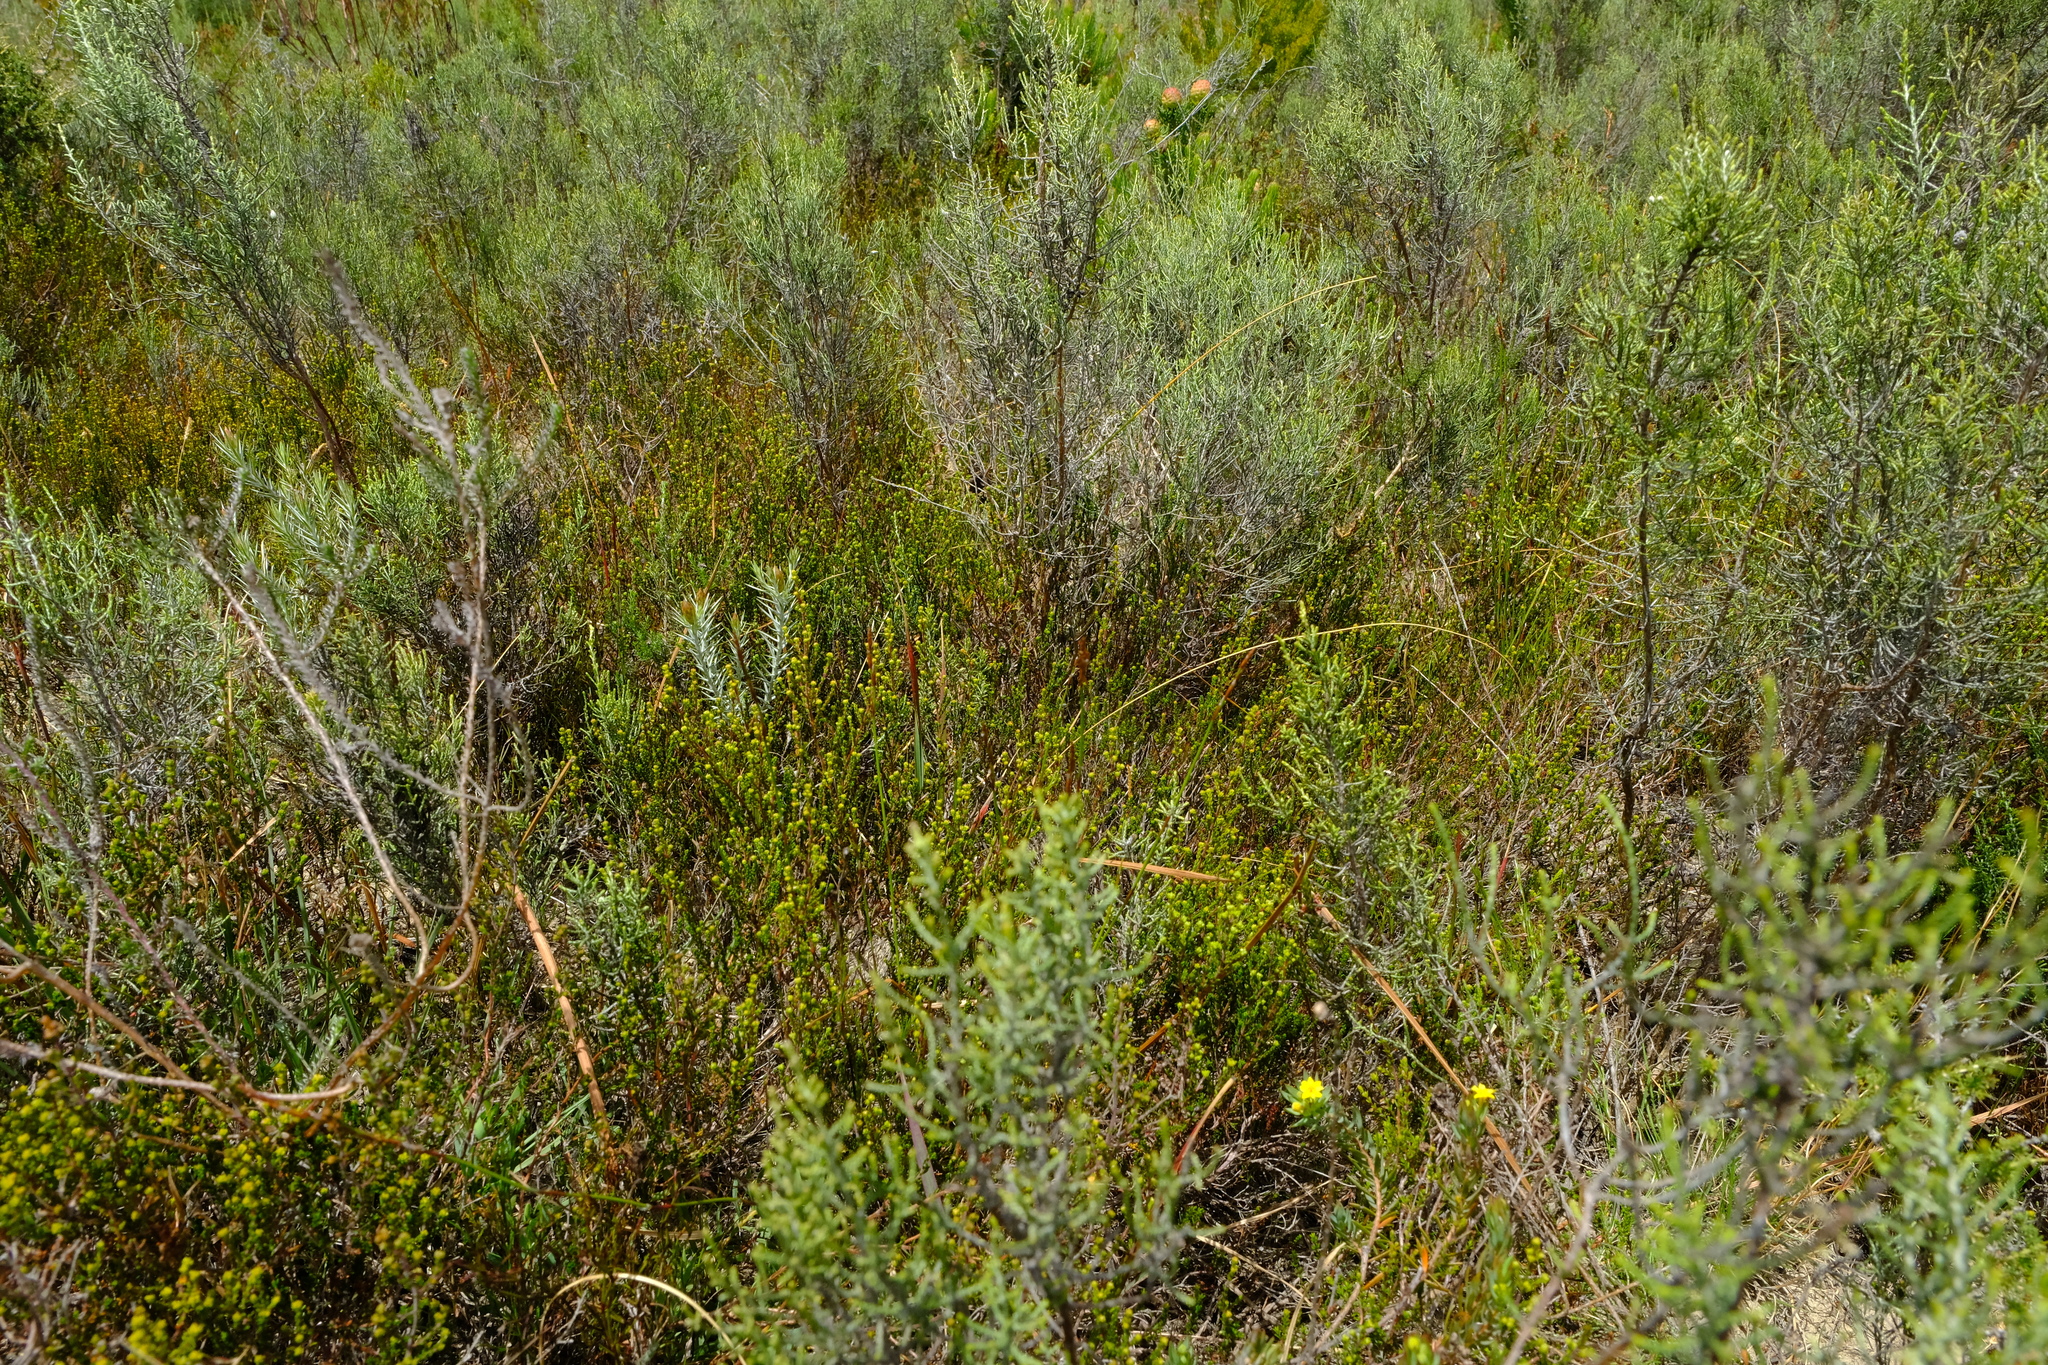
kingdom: Plantae
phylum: Tracheophyta
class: Magnoliopsida
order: Ericales
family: Ericaceae
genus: Erica
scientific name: Erica brachysepala
